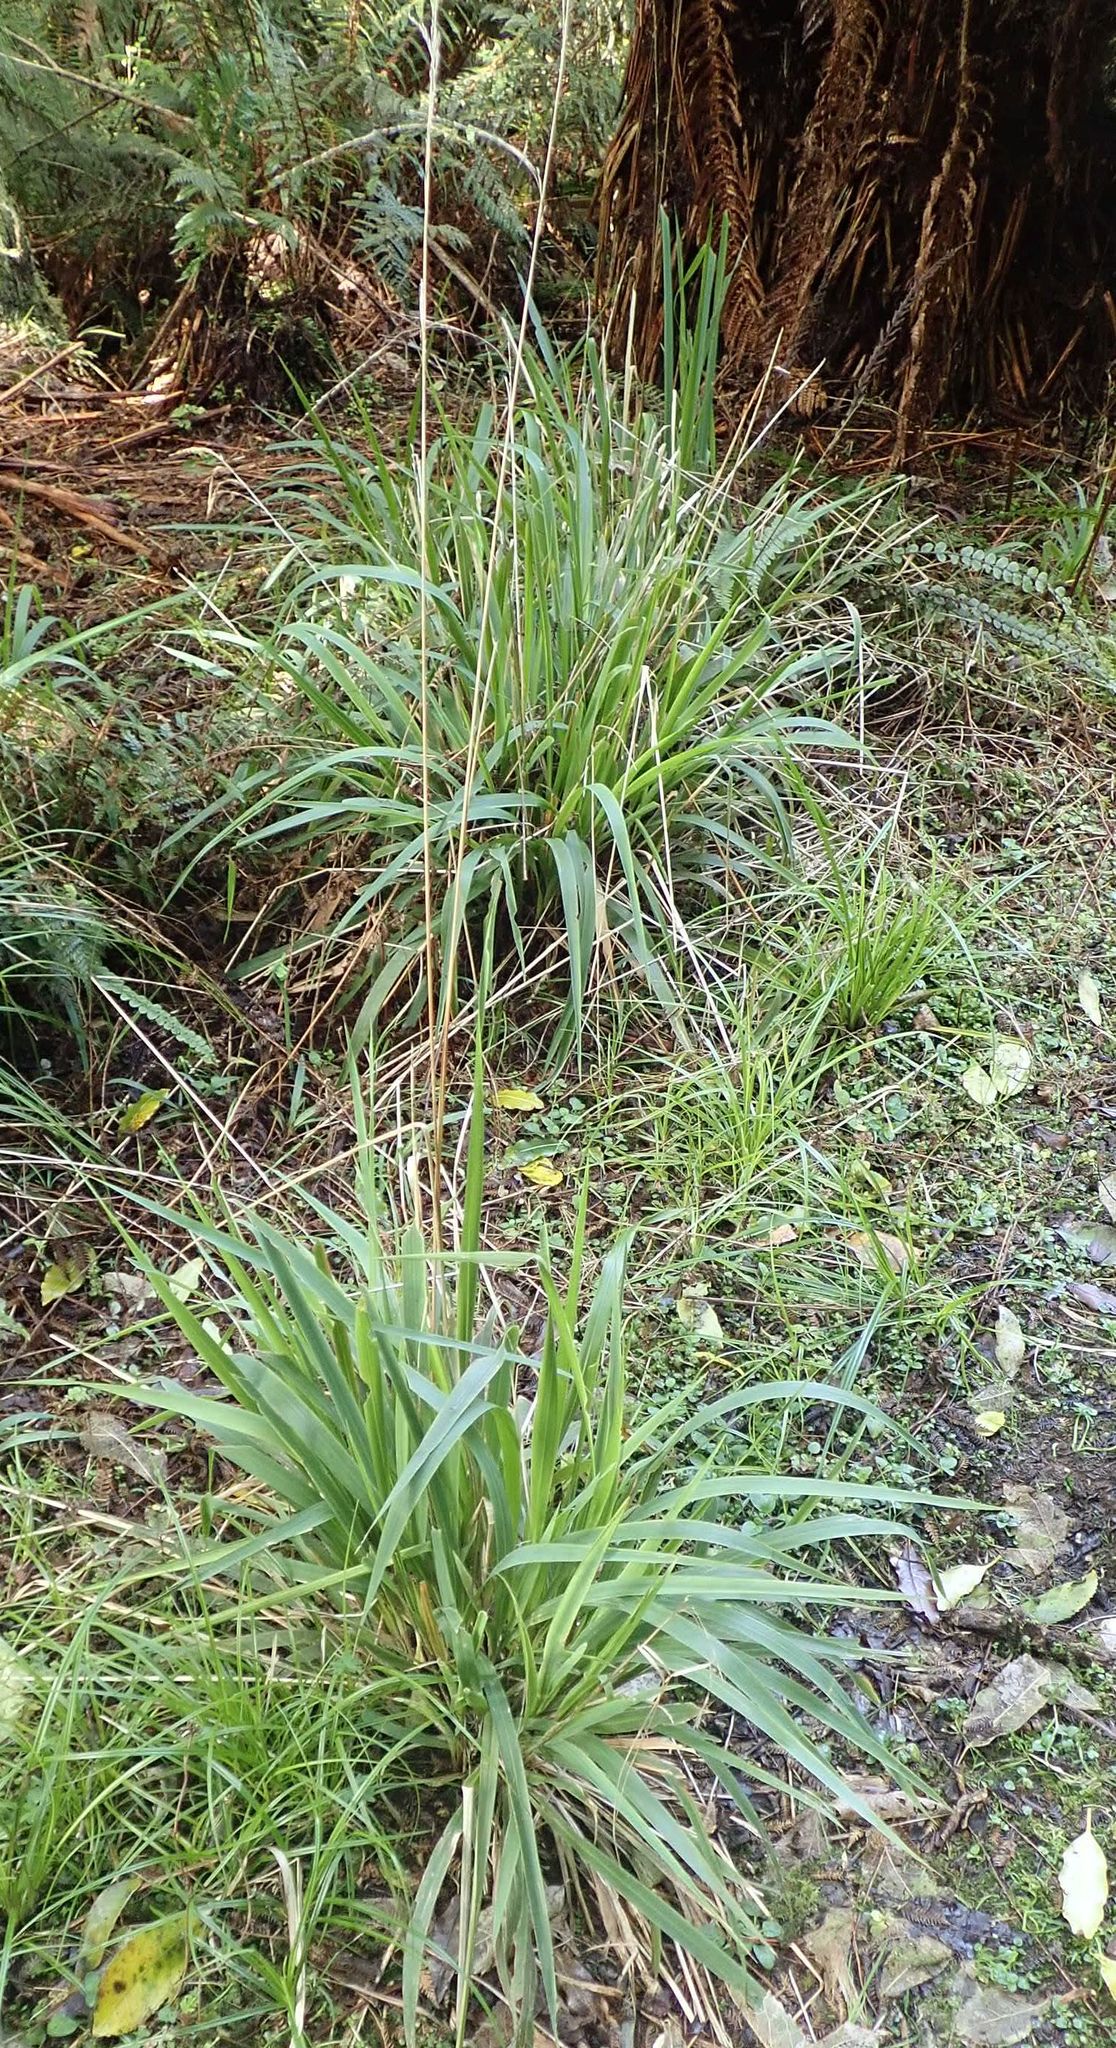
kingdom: Plantae
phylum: Tracheophyta
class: Liliopsida
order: Poales
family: Poaceae
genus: Ehrharta
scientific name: Ehrharta diplax
